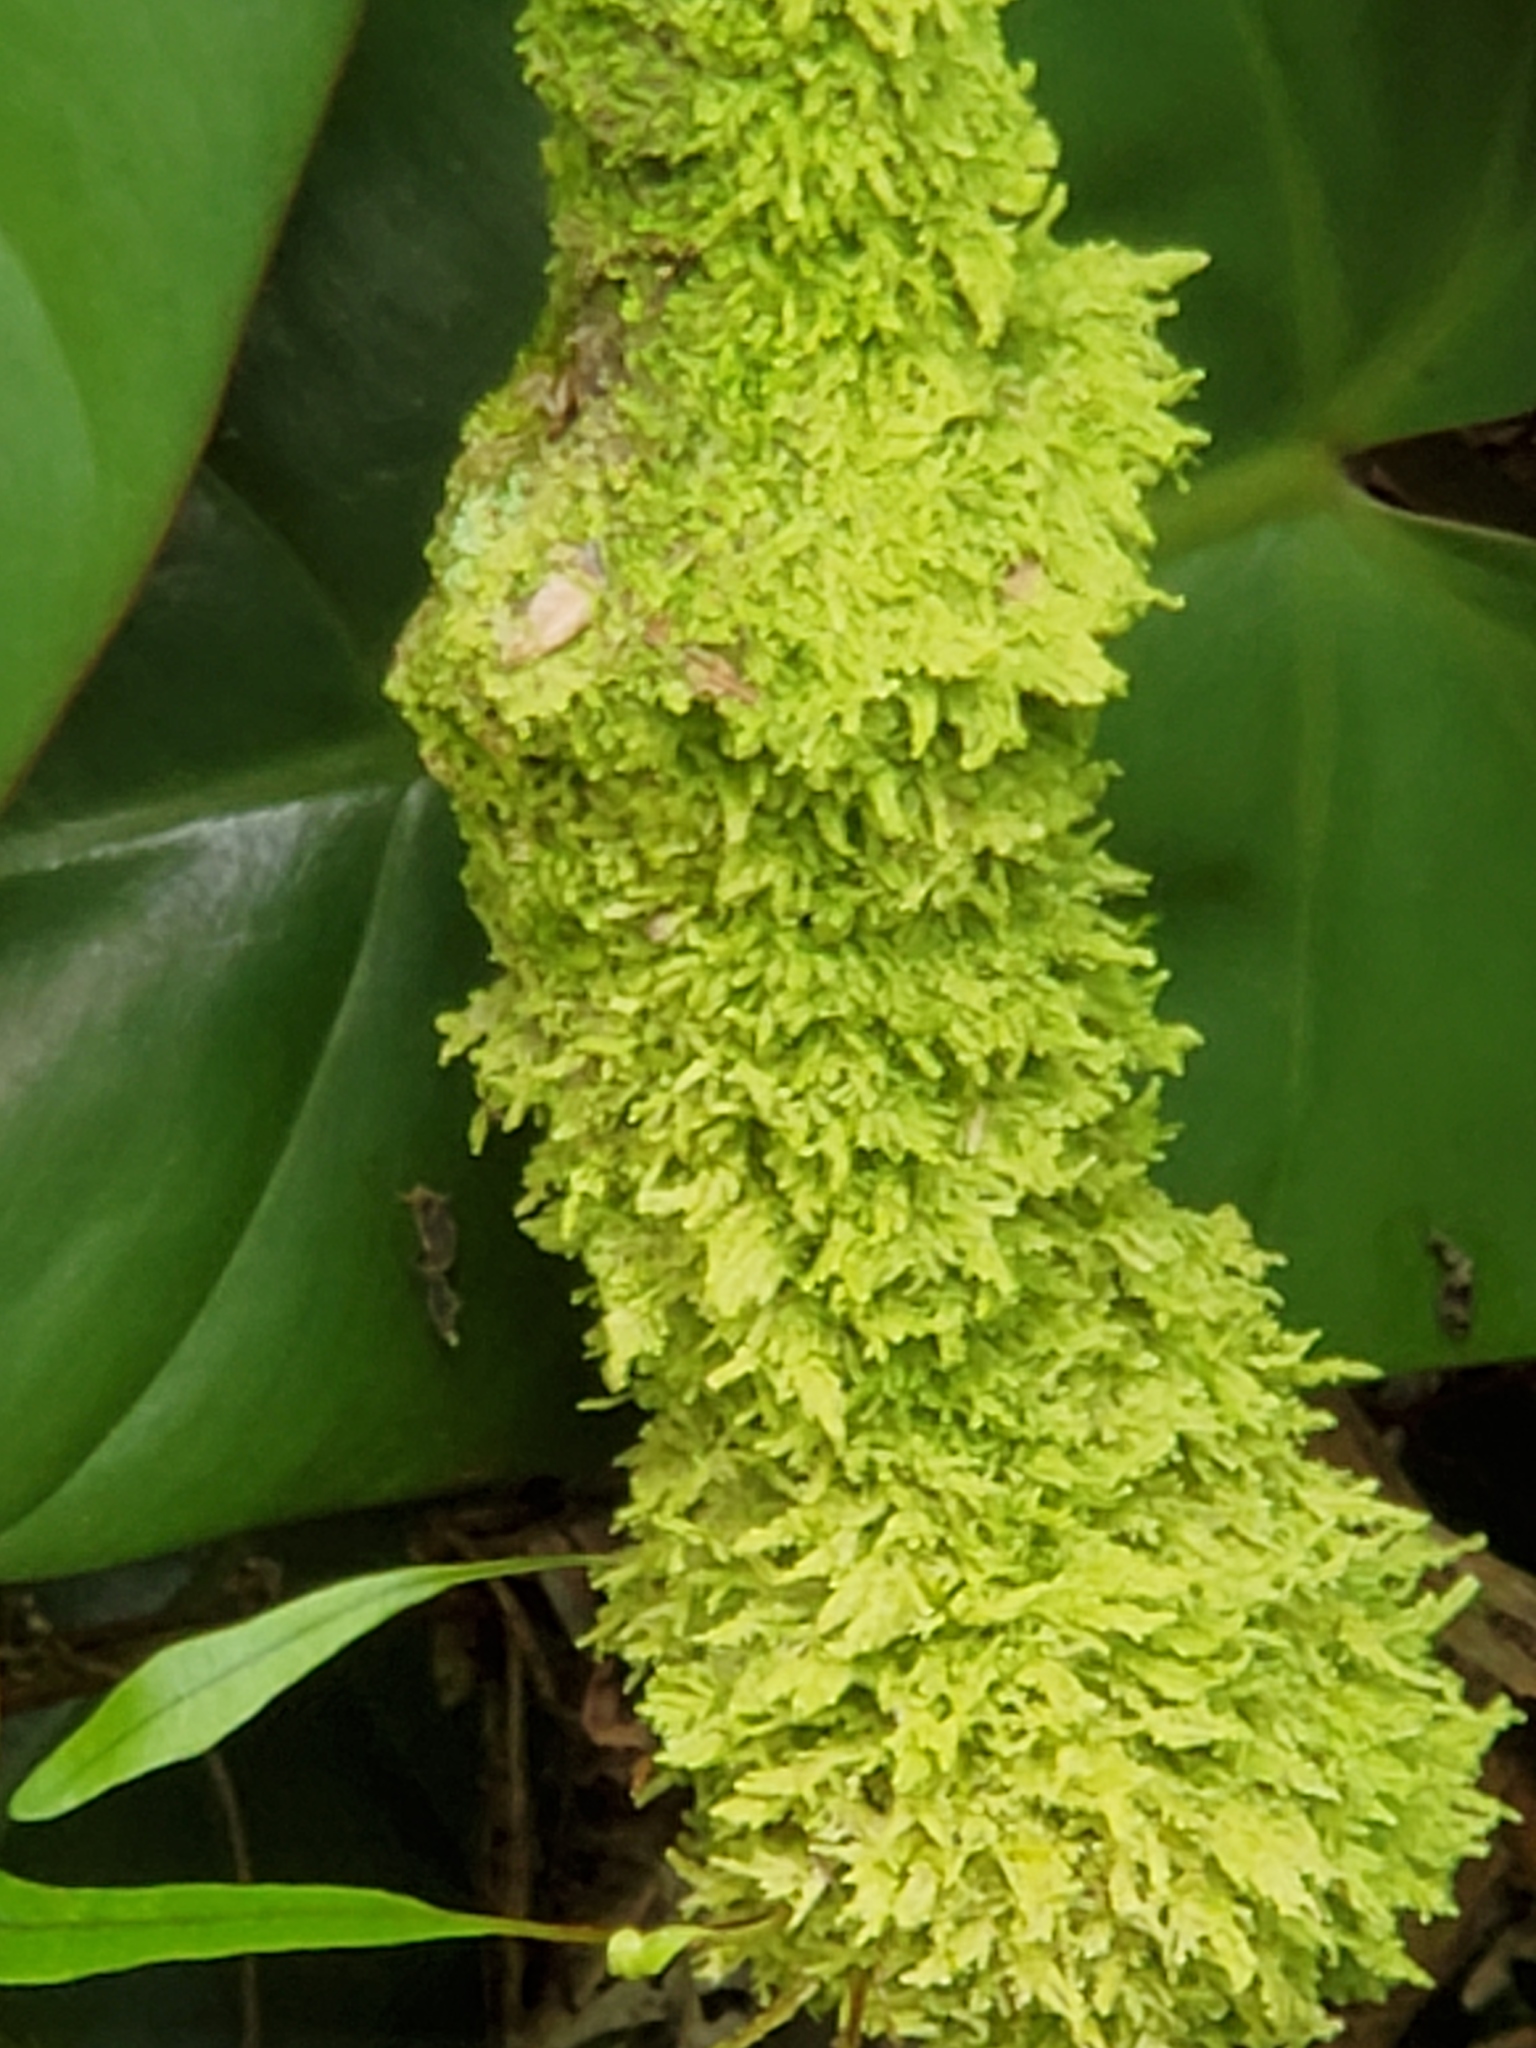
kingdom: Plantae
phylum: Marchantiophyta
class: Jungermanniopsida
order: Porellales
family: Lejeuneaceae
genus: Lejeunea
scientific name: Lejeunea flava
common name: Yellow pouncewort
